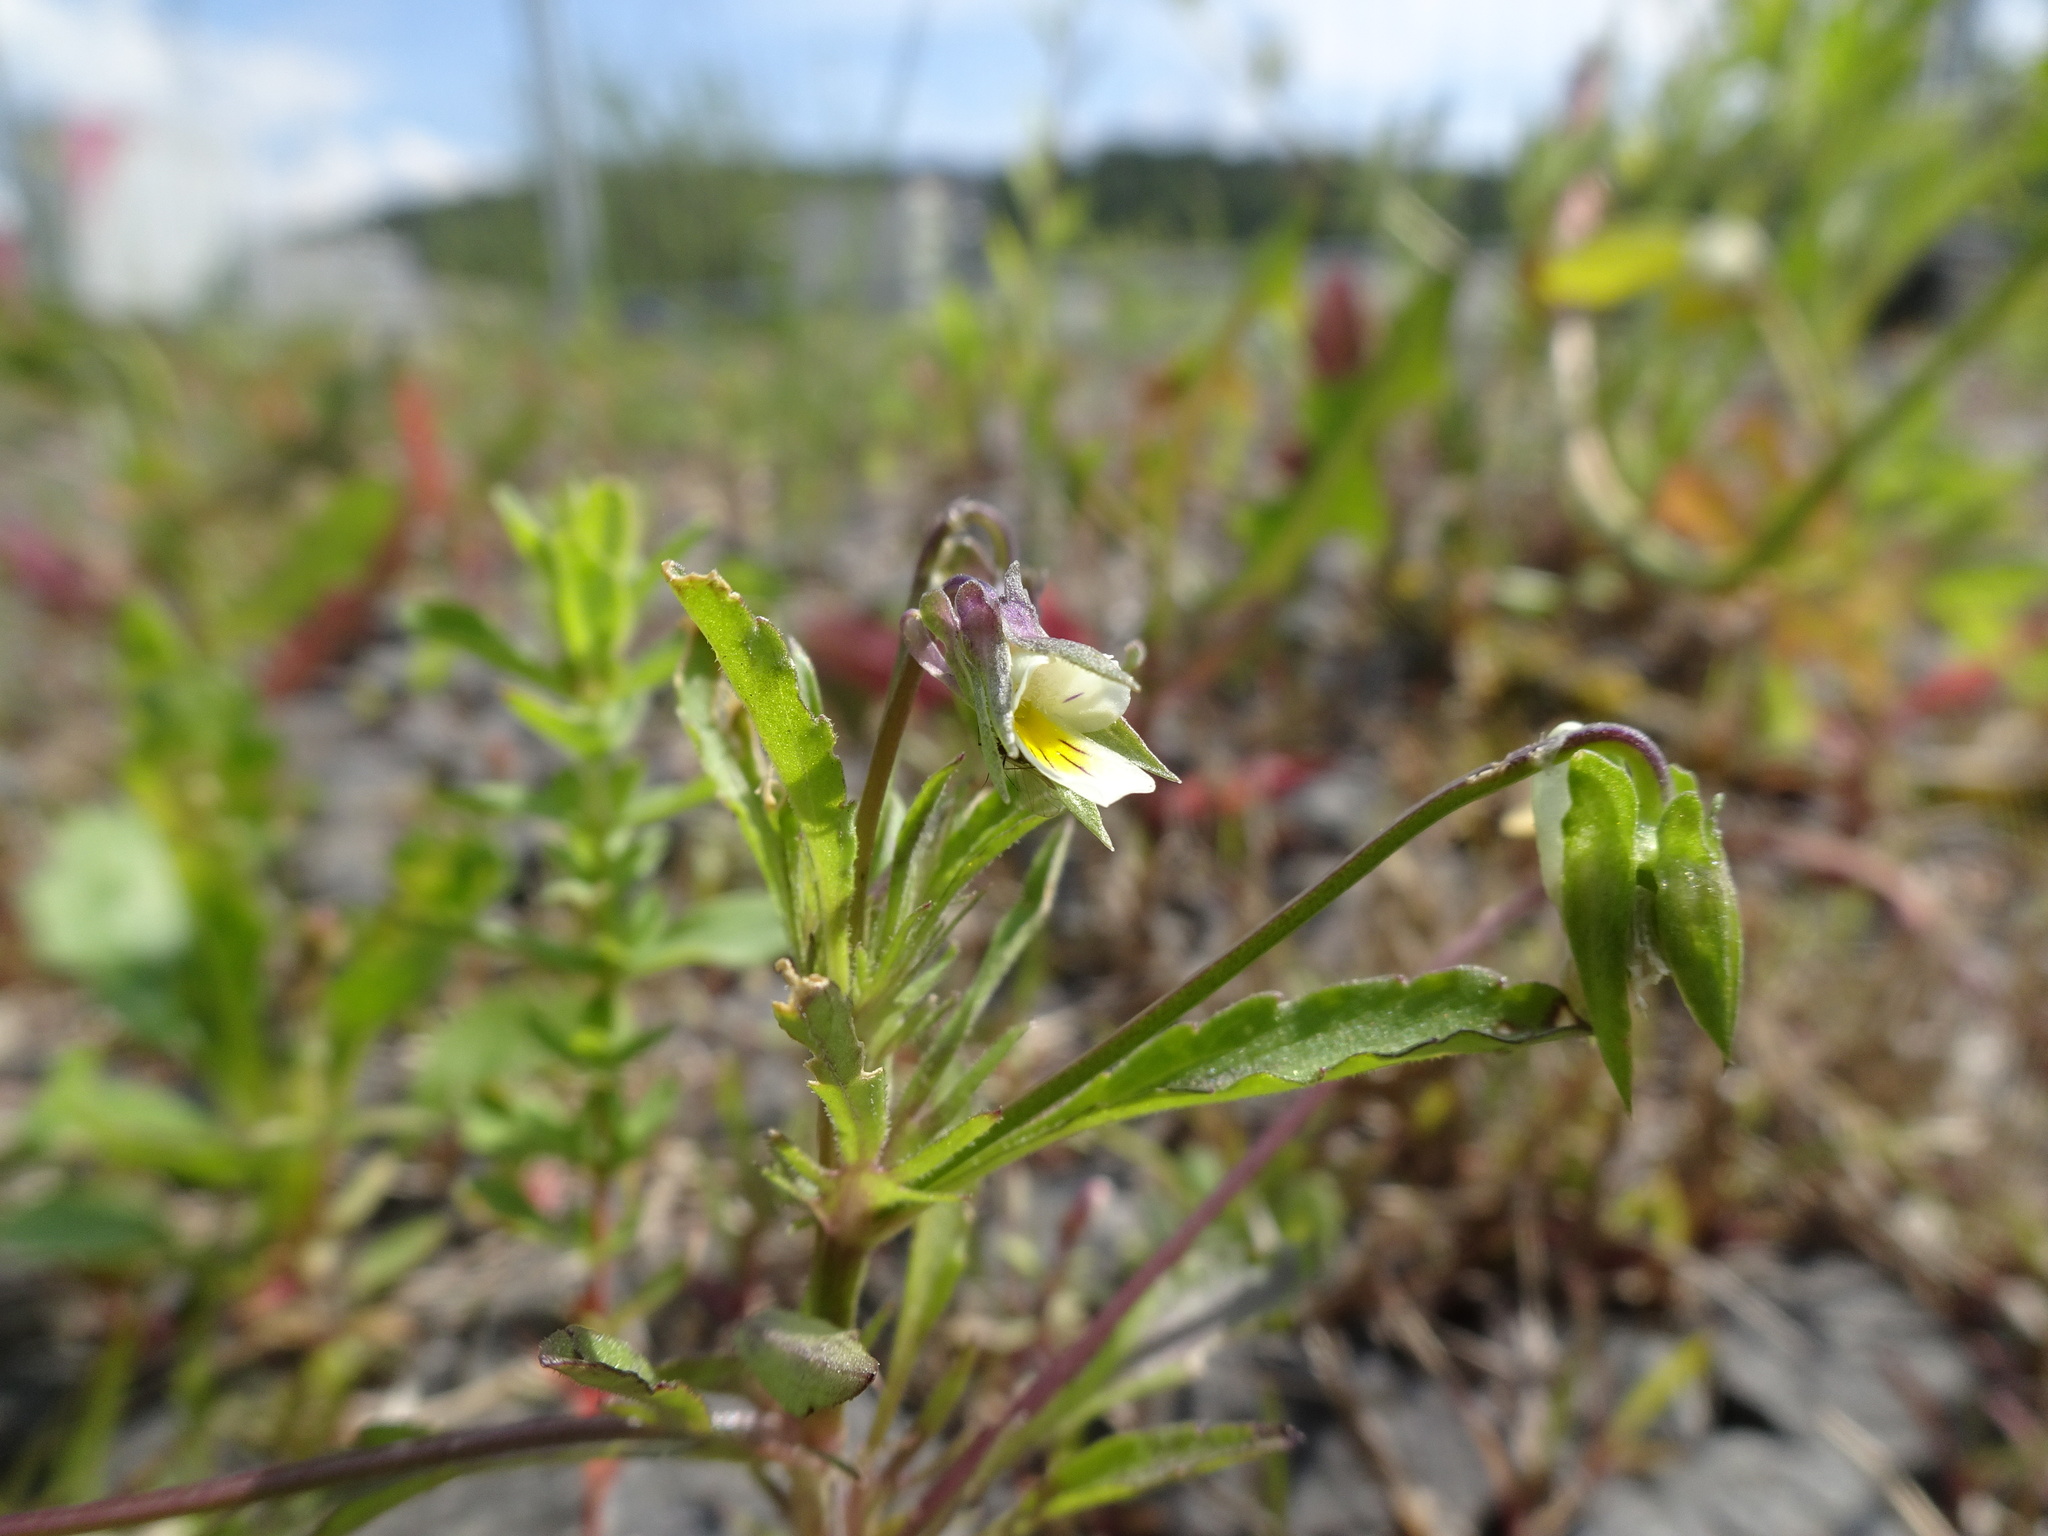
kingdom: Plantae
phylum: Tracheophyta
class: Magnoliopsida
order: Malpighiales
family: Violaceae
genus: Viola
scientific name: Viola arvensis
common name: Field pansy
